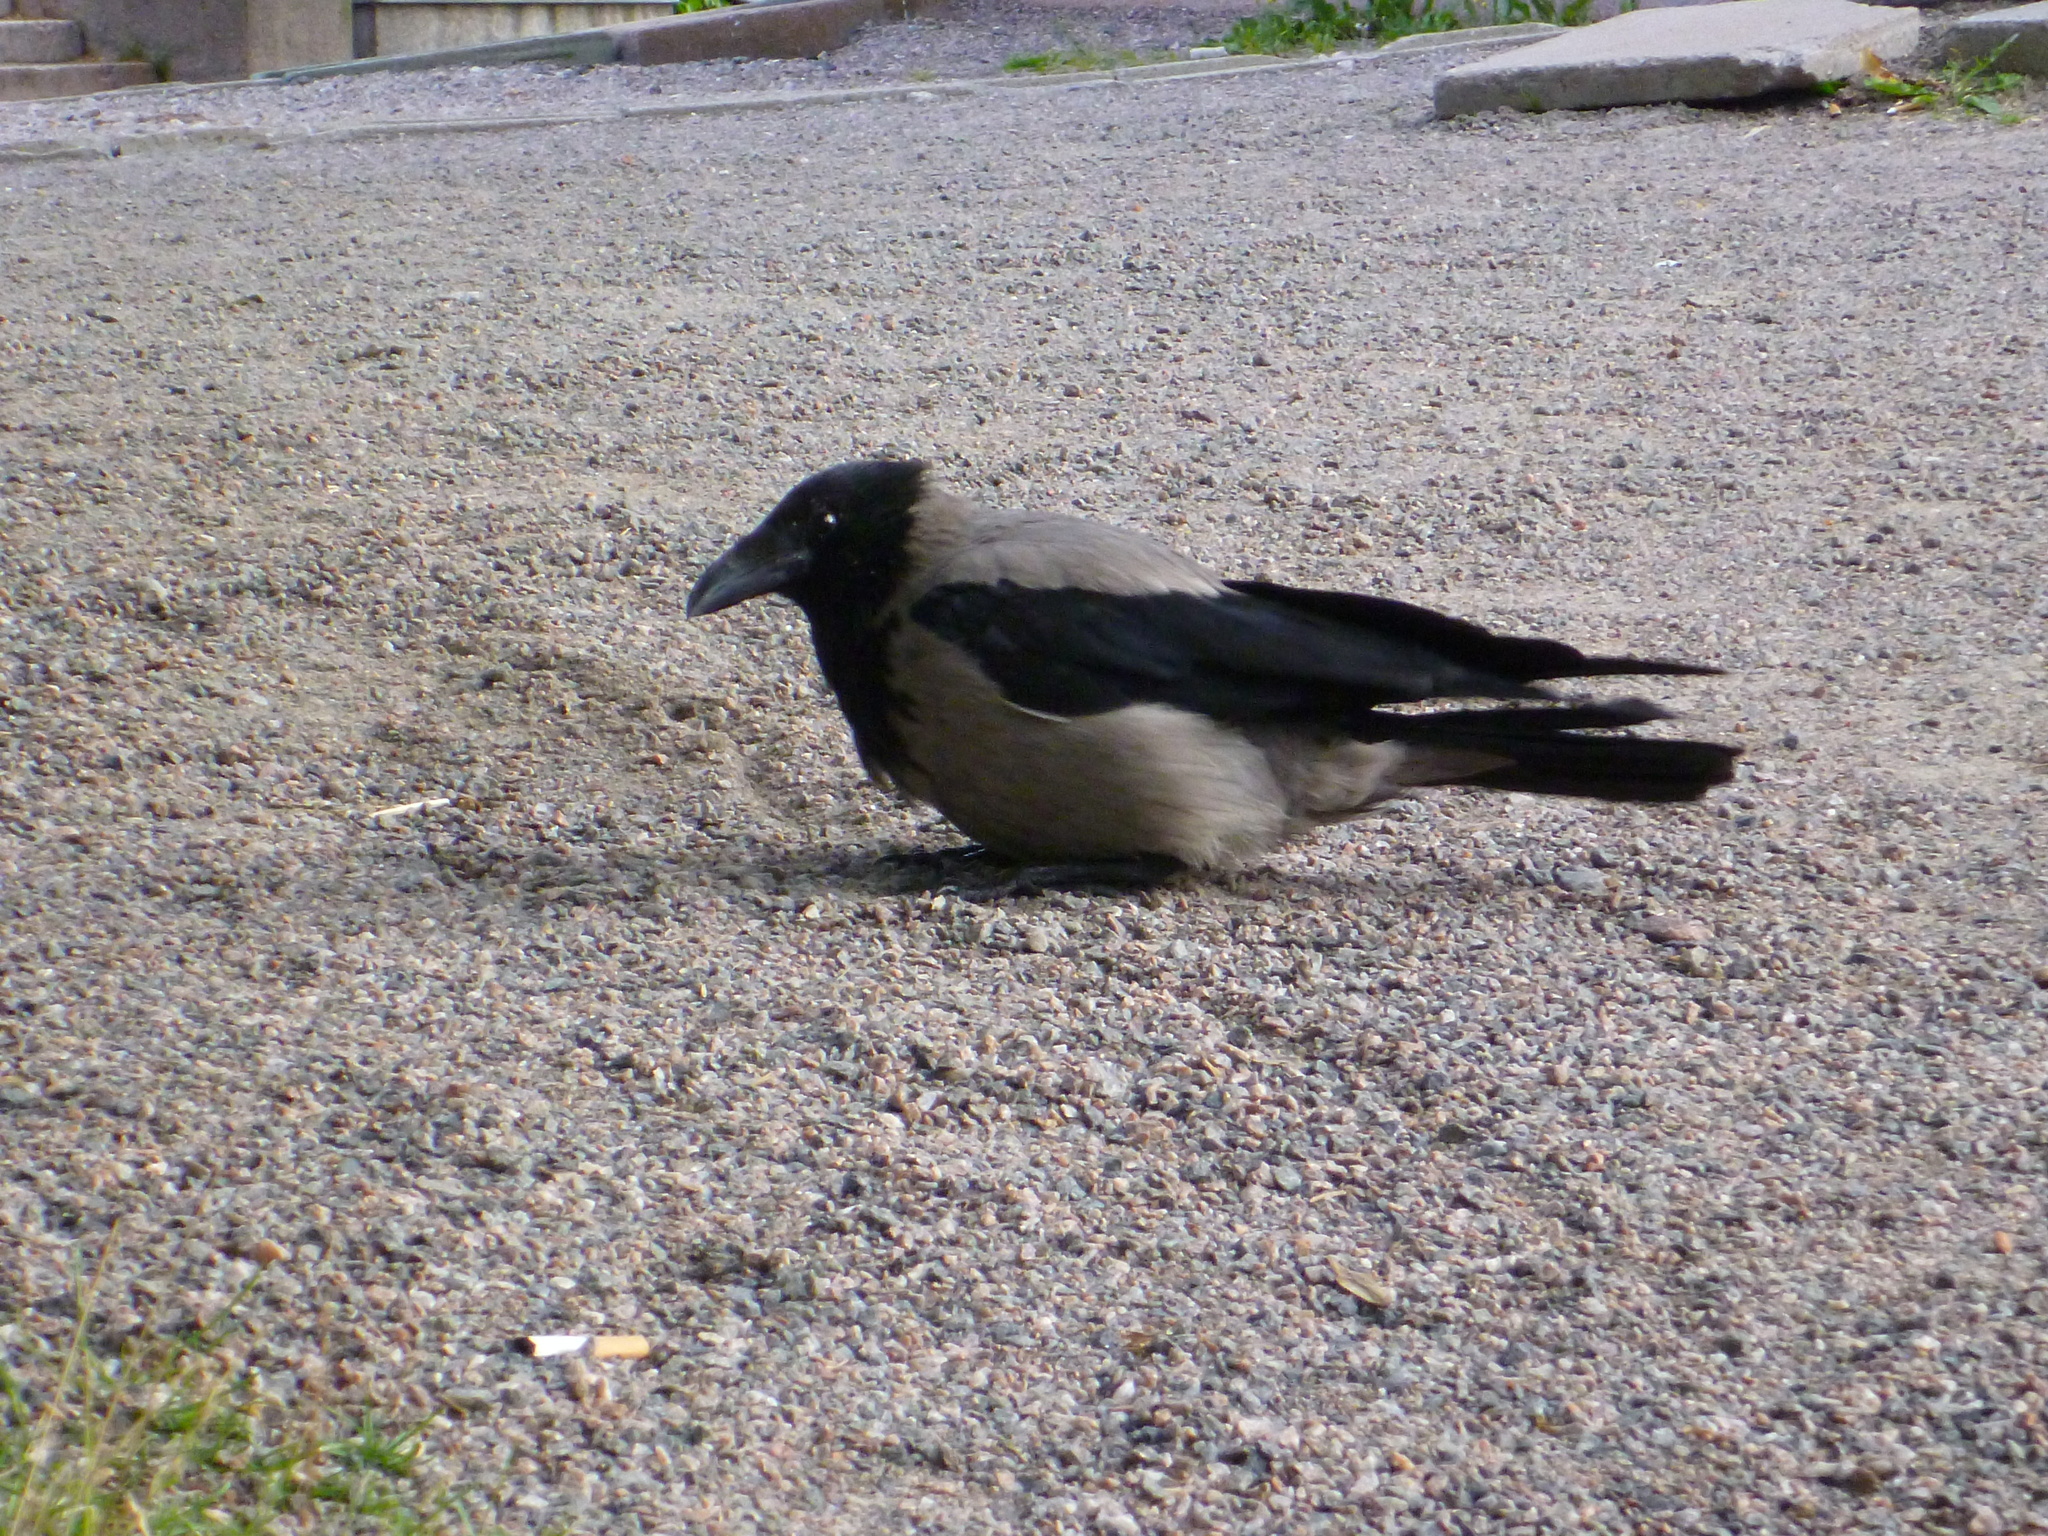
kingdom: Animalia
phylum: Chordata
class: Aves
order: Passeriformes
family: Corvidae
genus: Corvus
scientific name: Corvus cornix
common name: Hooded crow
